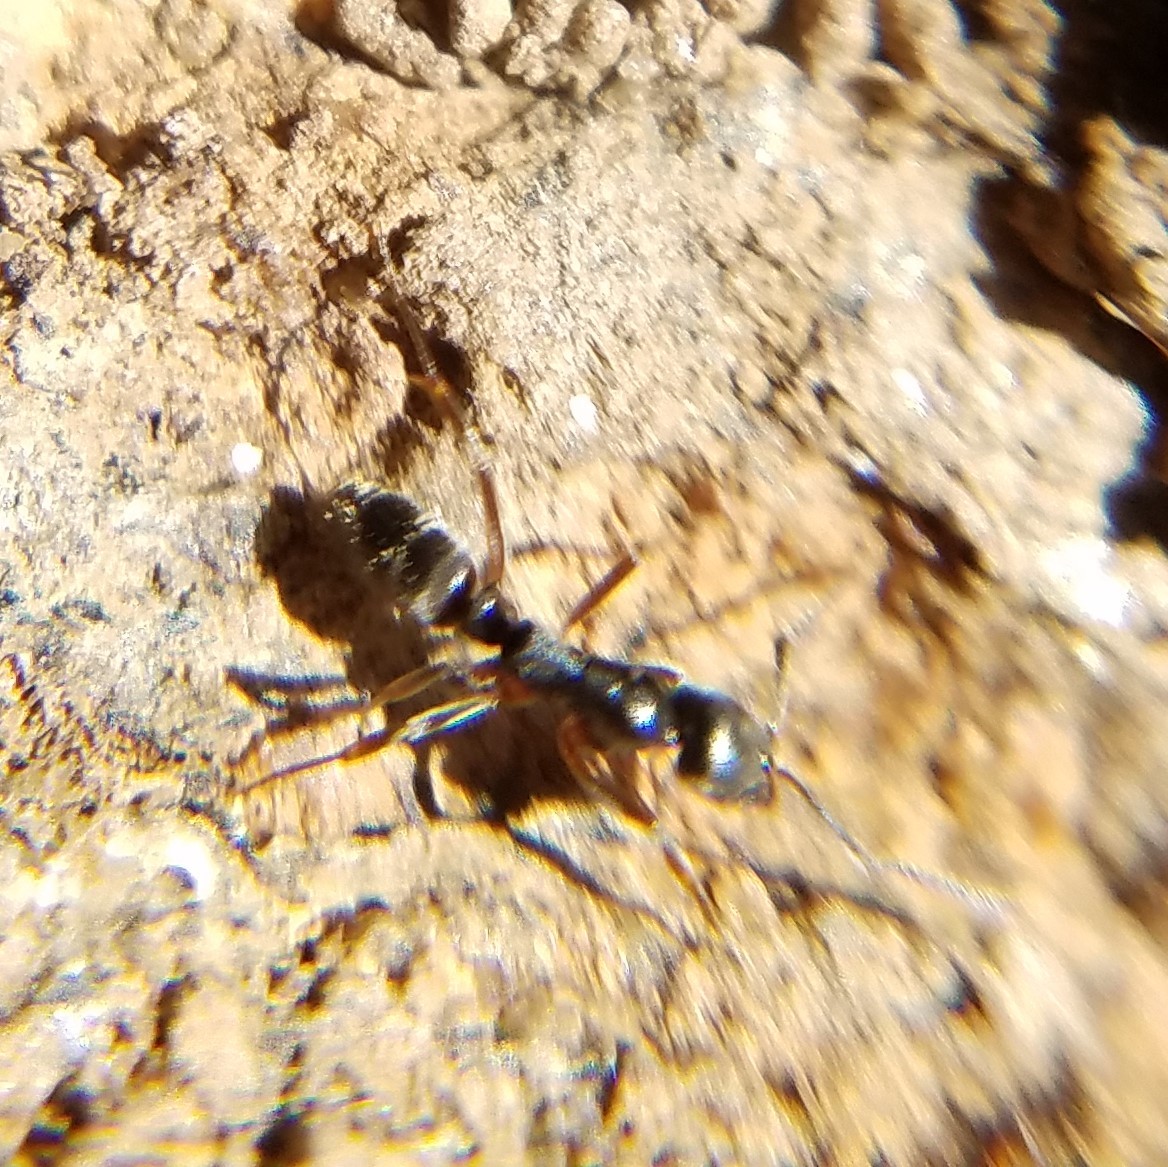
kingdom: Animalia
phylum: Arthropoda
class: Insecta
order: Hymenoptera
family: Formicidae
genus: Pachycondyla
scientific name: Pachycondyla chinensis
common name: Asian needle ant
